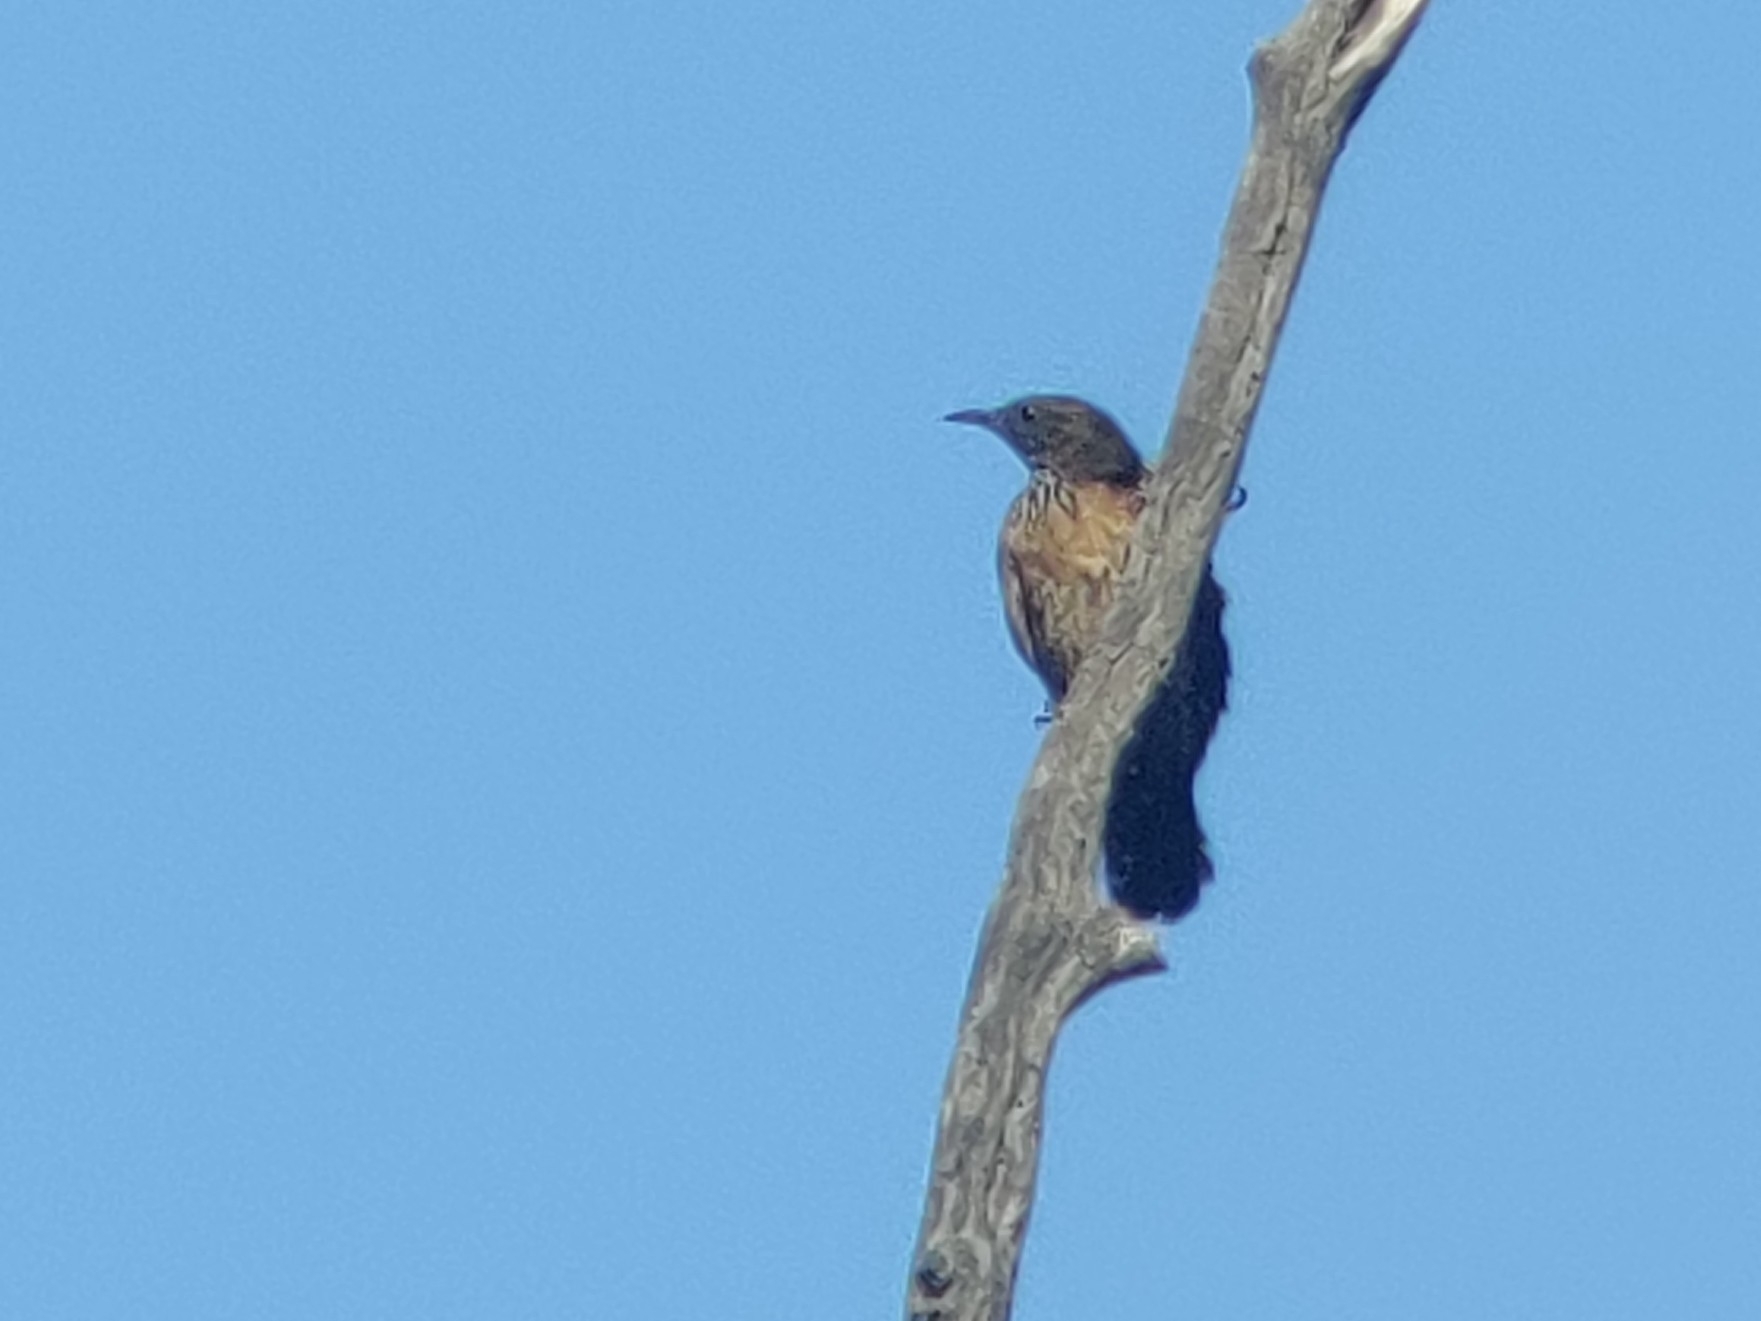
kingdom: Animalia
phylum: Chordata
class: Aves
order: Passeriformes
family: Climacteridae
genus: Climacteris
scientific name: Climacteris melanurus
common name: Black-tailed treecreeper
